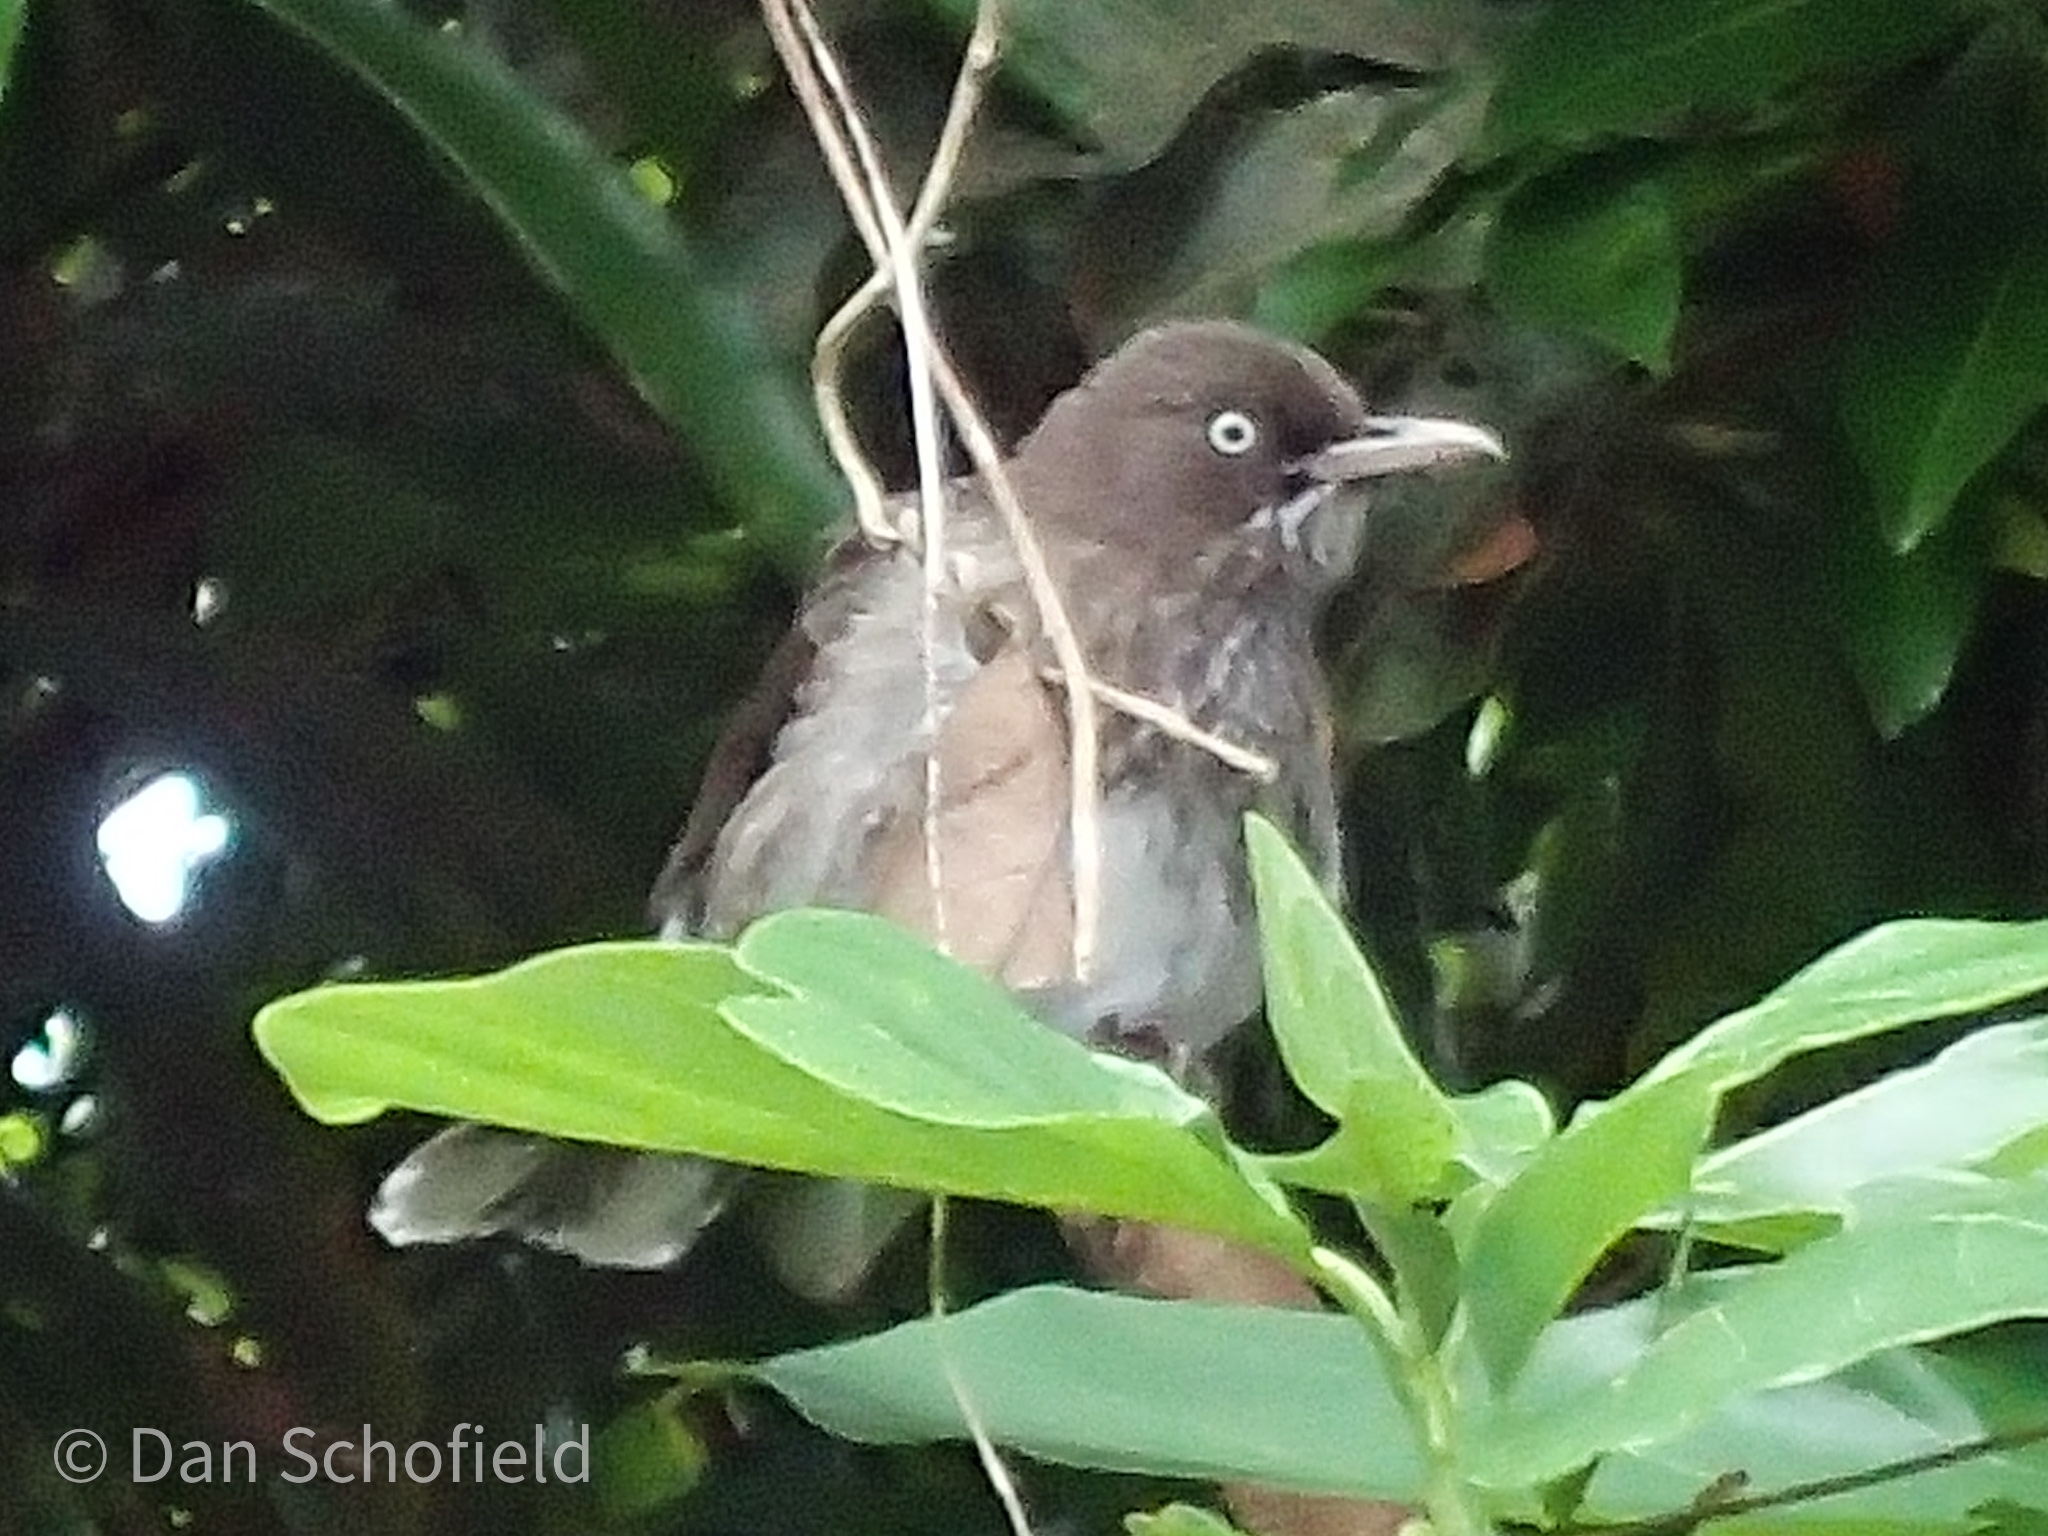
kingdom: Animalia
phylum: Chordata
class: Aves
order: Passeriformes
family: Mimidae
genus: Margarops
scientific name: Margarops fuscatus
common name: Pearly-eyed thrasher
